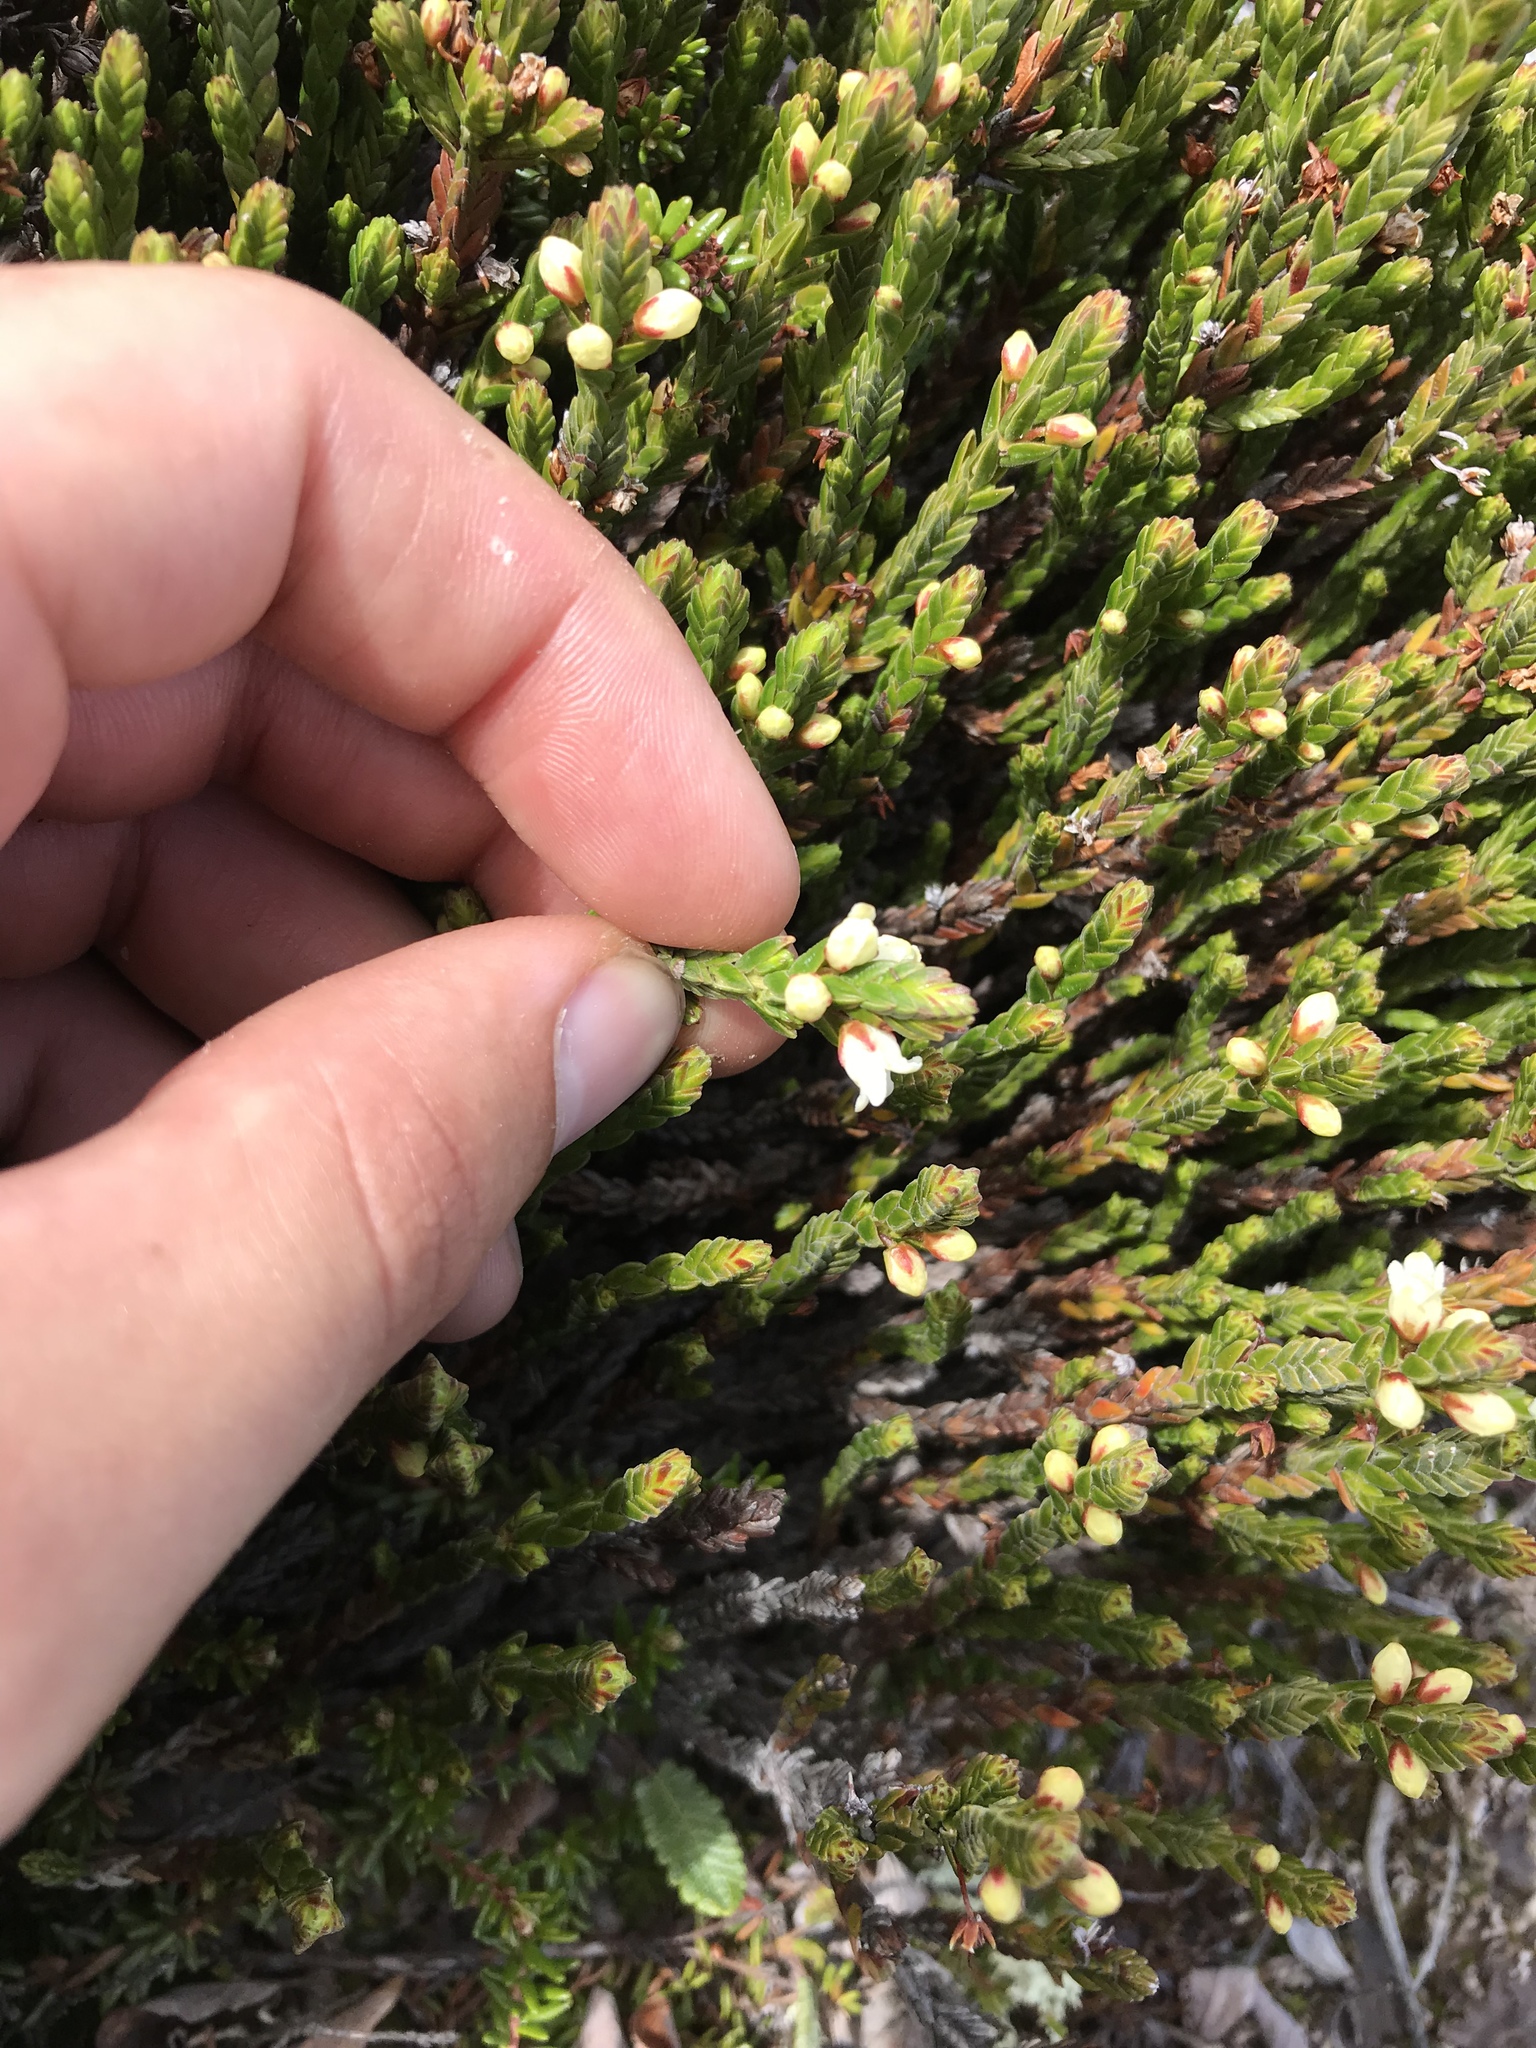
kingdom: Plantae
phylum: Tracheophyta
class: Magnoliopsida
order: Ericales
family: Ericaceae
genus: Cassiope
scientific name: Cassiope tetragona
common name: Arctic bell heather
